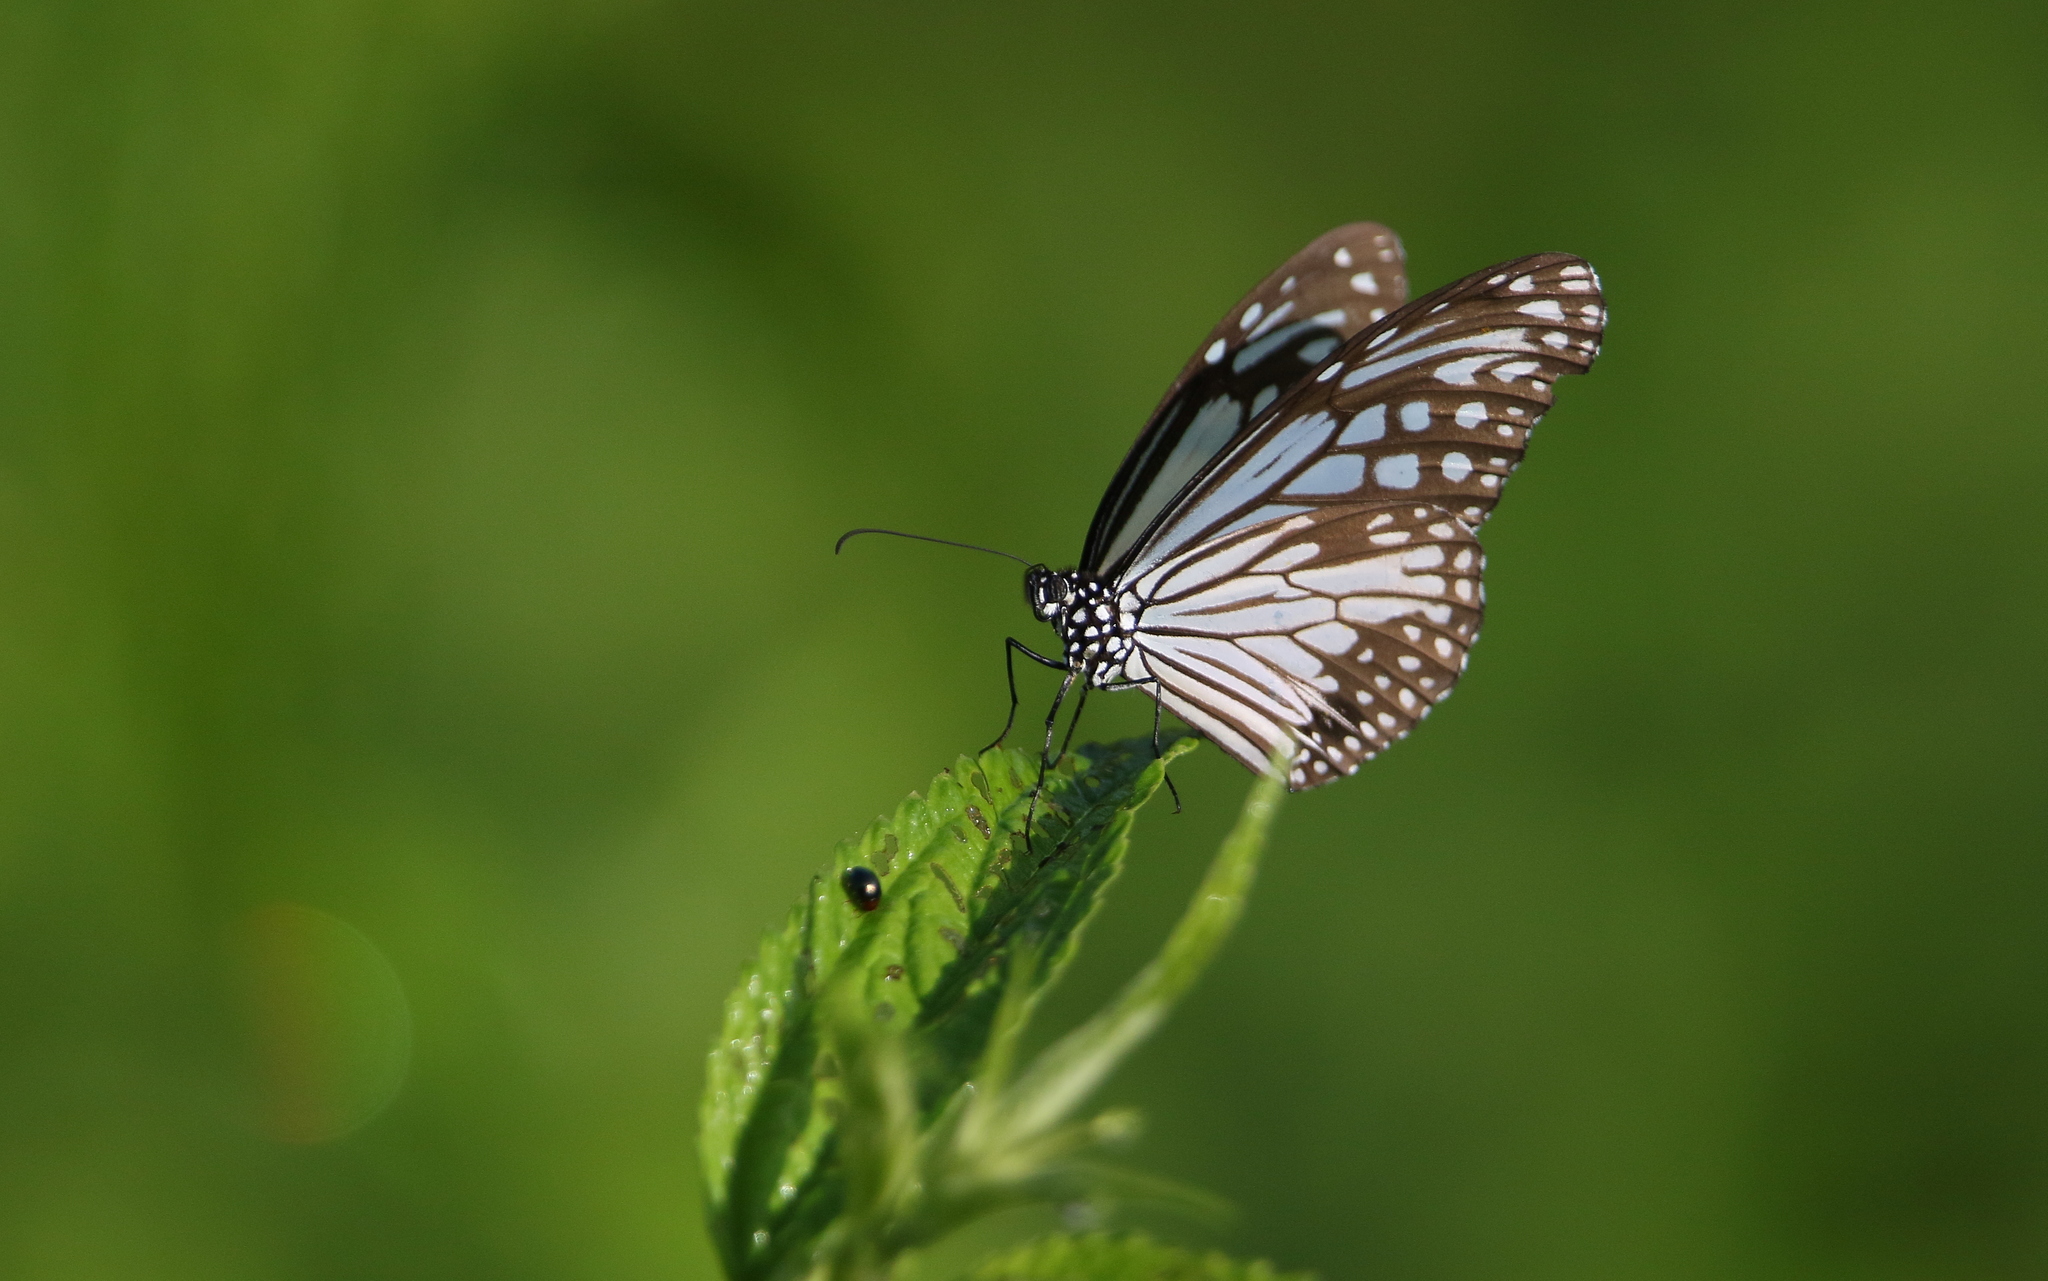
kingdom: Animalia
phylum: Arthropoda
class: Insecta
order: Lepidoptera
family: Nymphalidae
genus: Parantica
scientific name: Parantica aglea
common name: Glassy tiger
